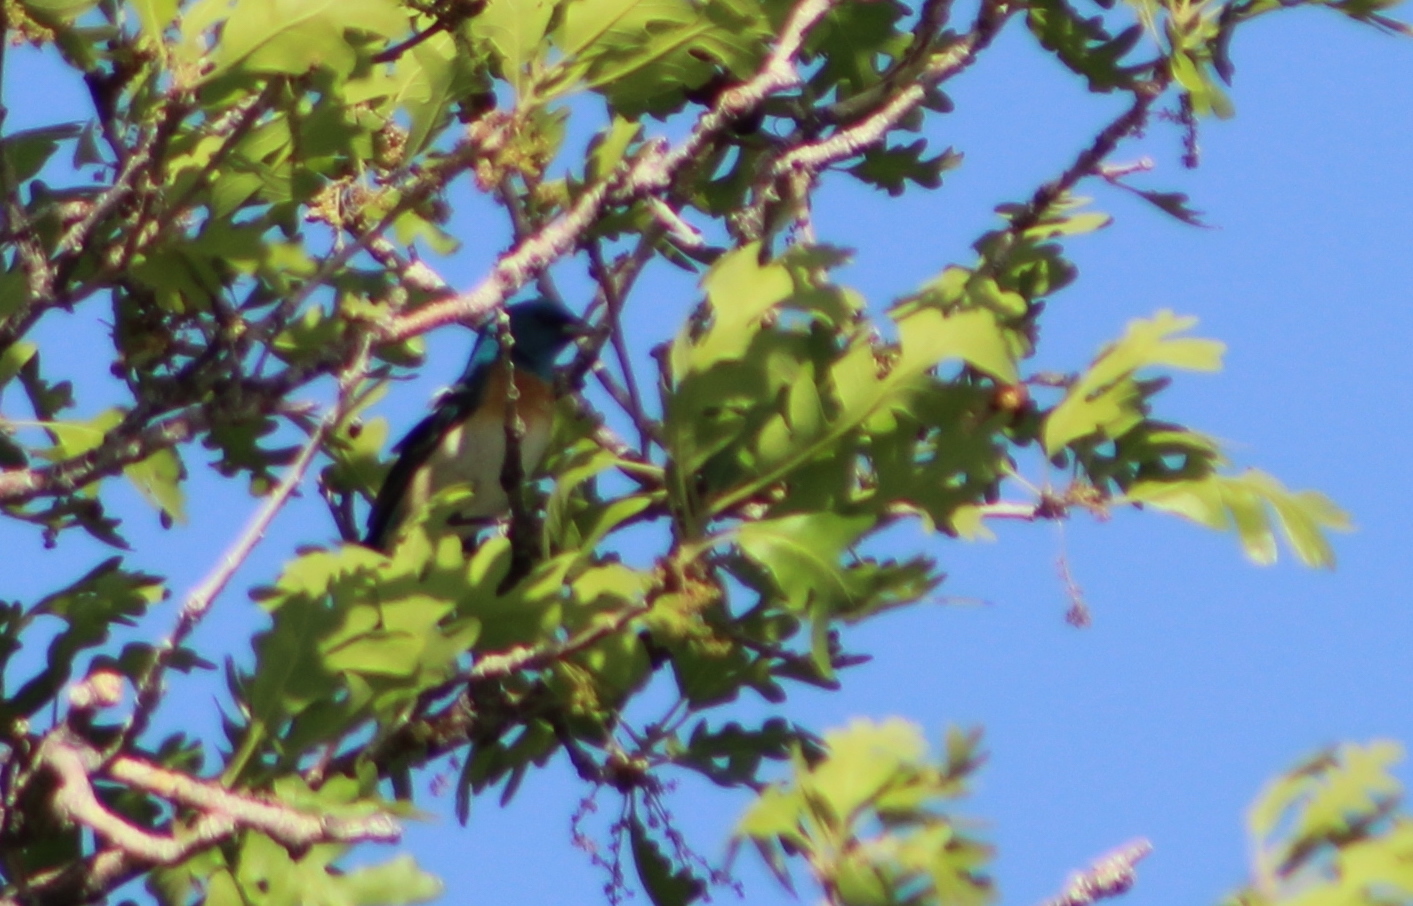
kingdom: Animalia
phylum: Chordata
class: Aves
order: Passeriformes
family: Cardinalidae
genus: Passerina
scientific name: Passerina amoena
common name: Lazuli bunting
